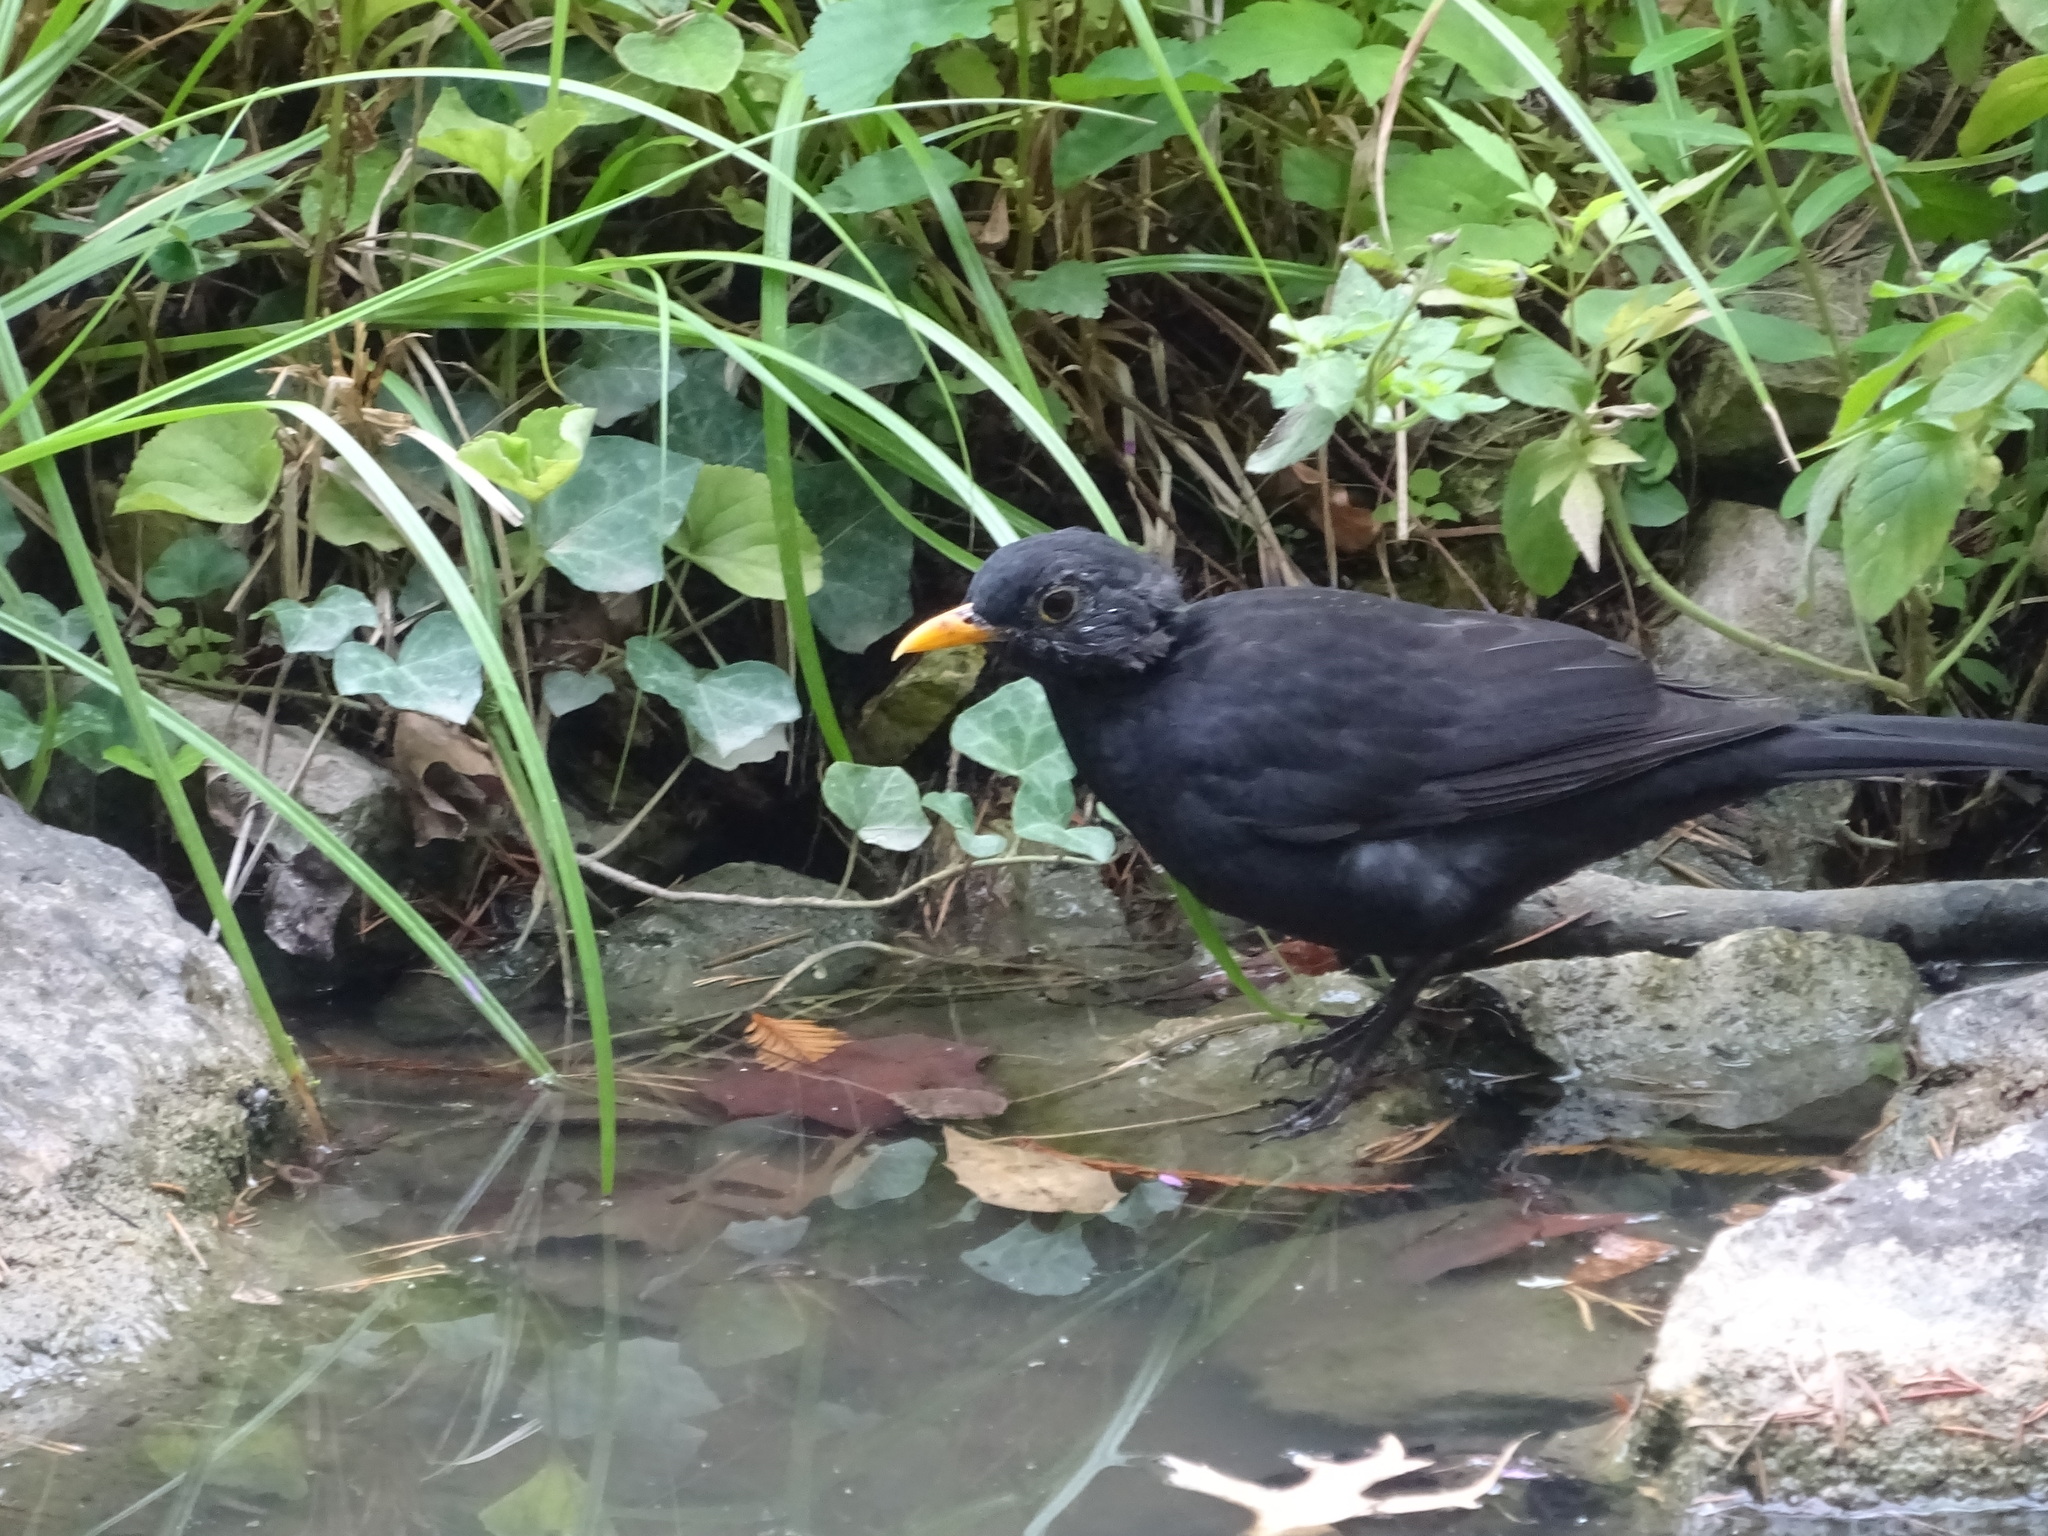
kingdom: Animalia
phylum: Chordata
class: Aves
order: Passeriformes
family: Turdidae
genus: Turdus
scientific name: Turdus merula
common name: Common blackbird
